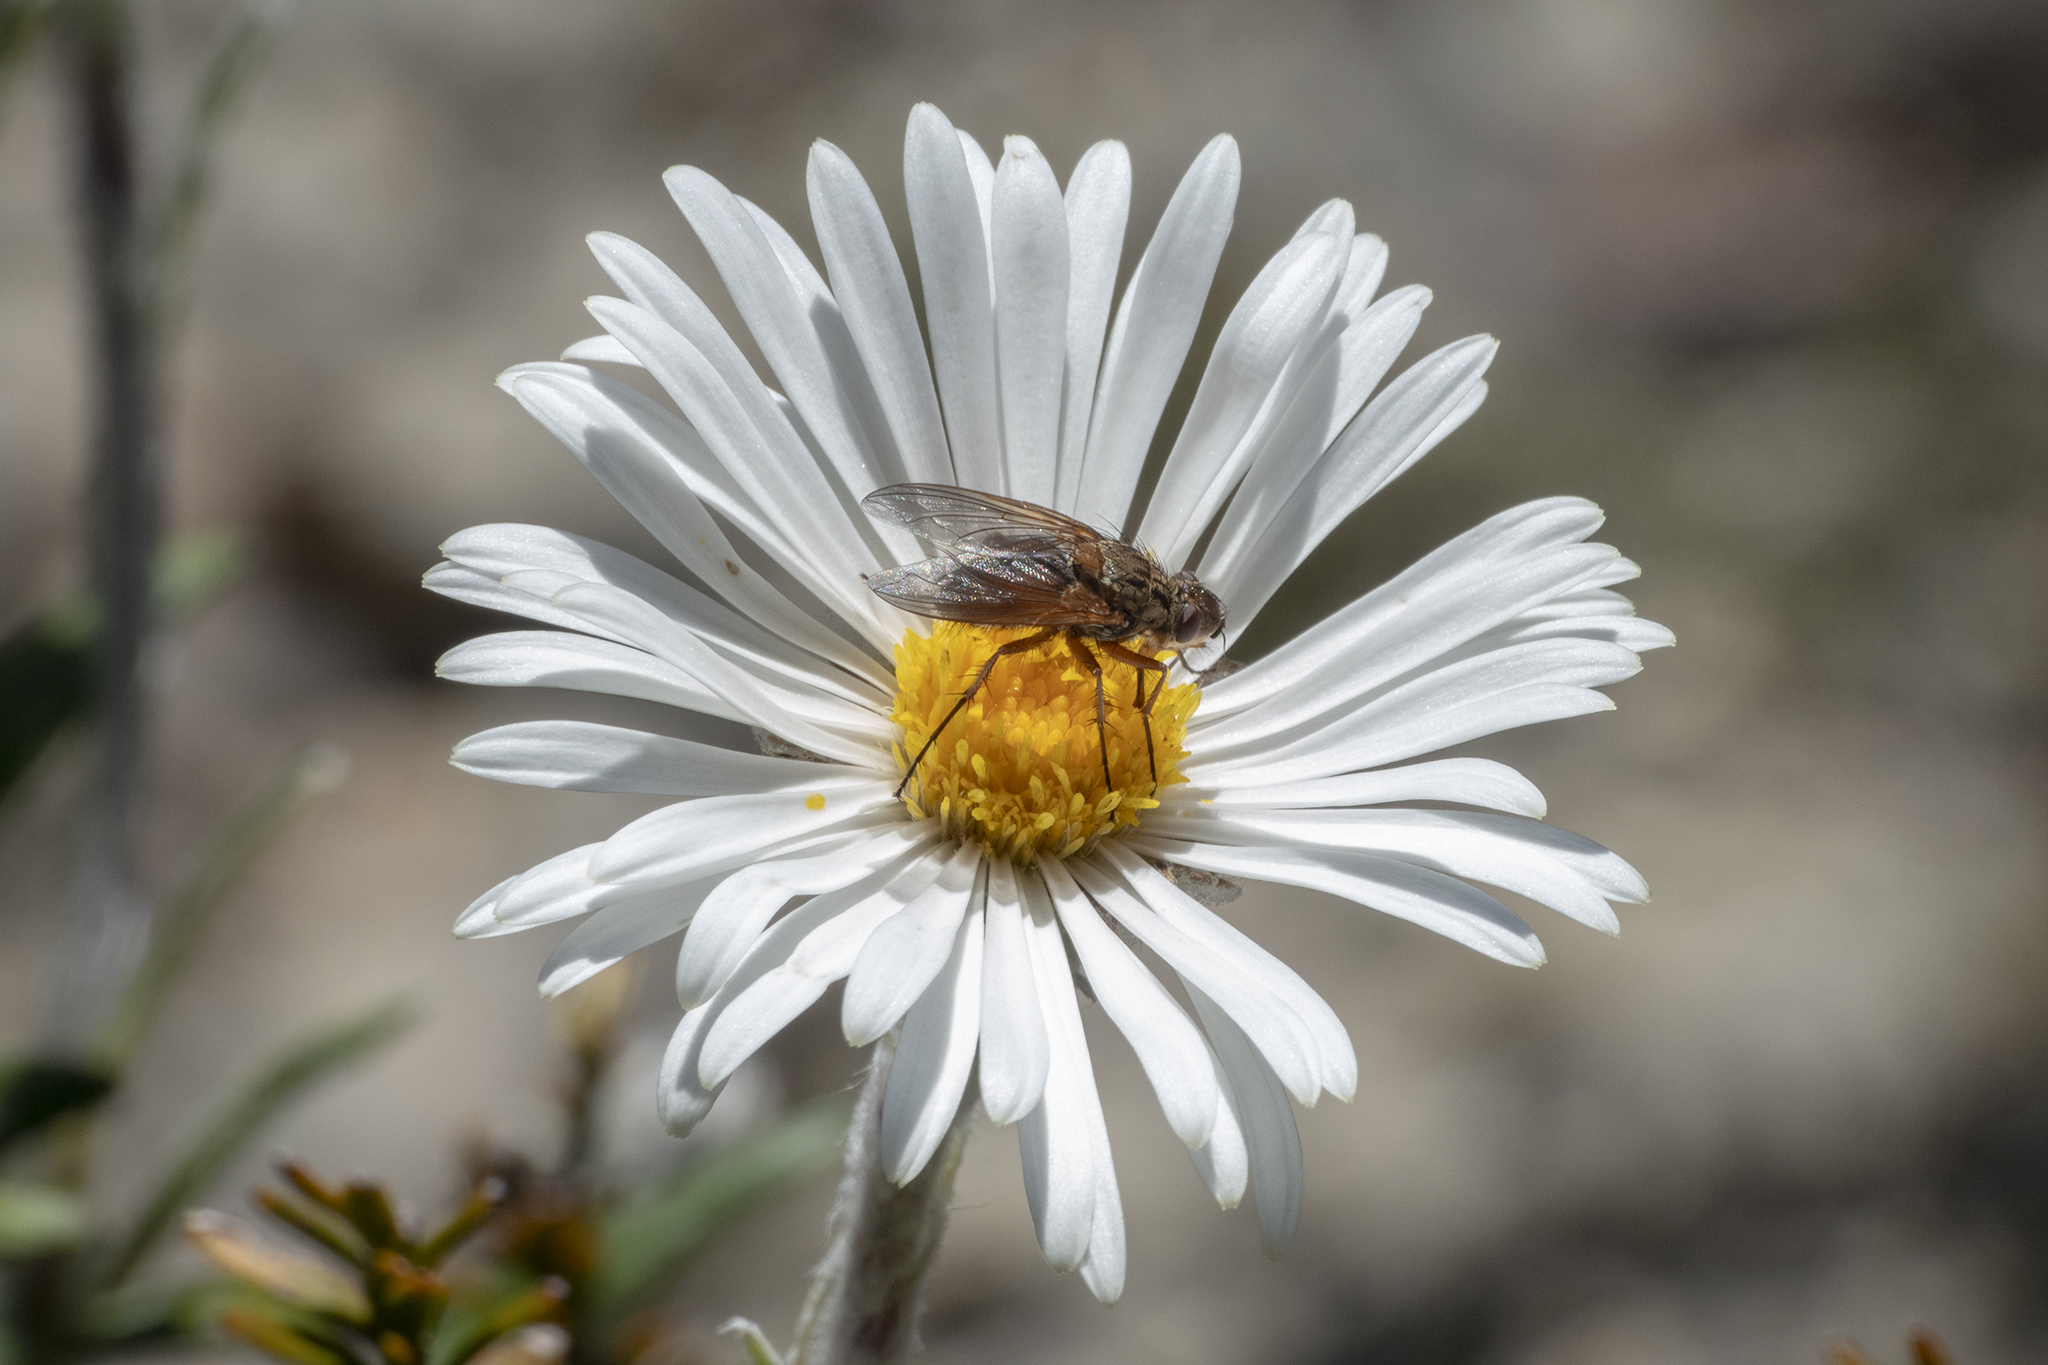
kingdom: Animalia
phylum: Arthropoda
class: Insecta
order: Diptera
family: Tachinidae
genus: Peremptor
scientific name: Peremptor kumaraensis
